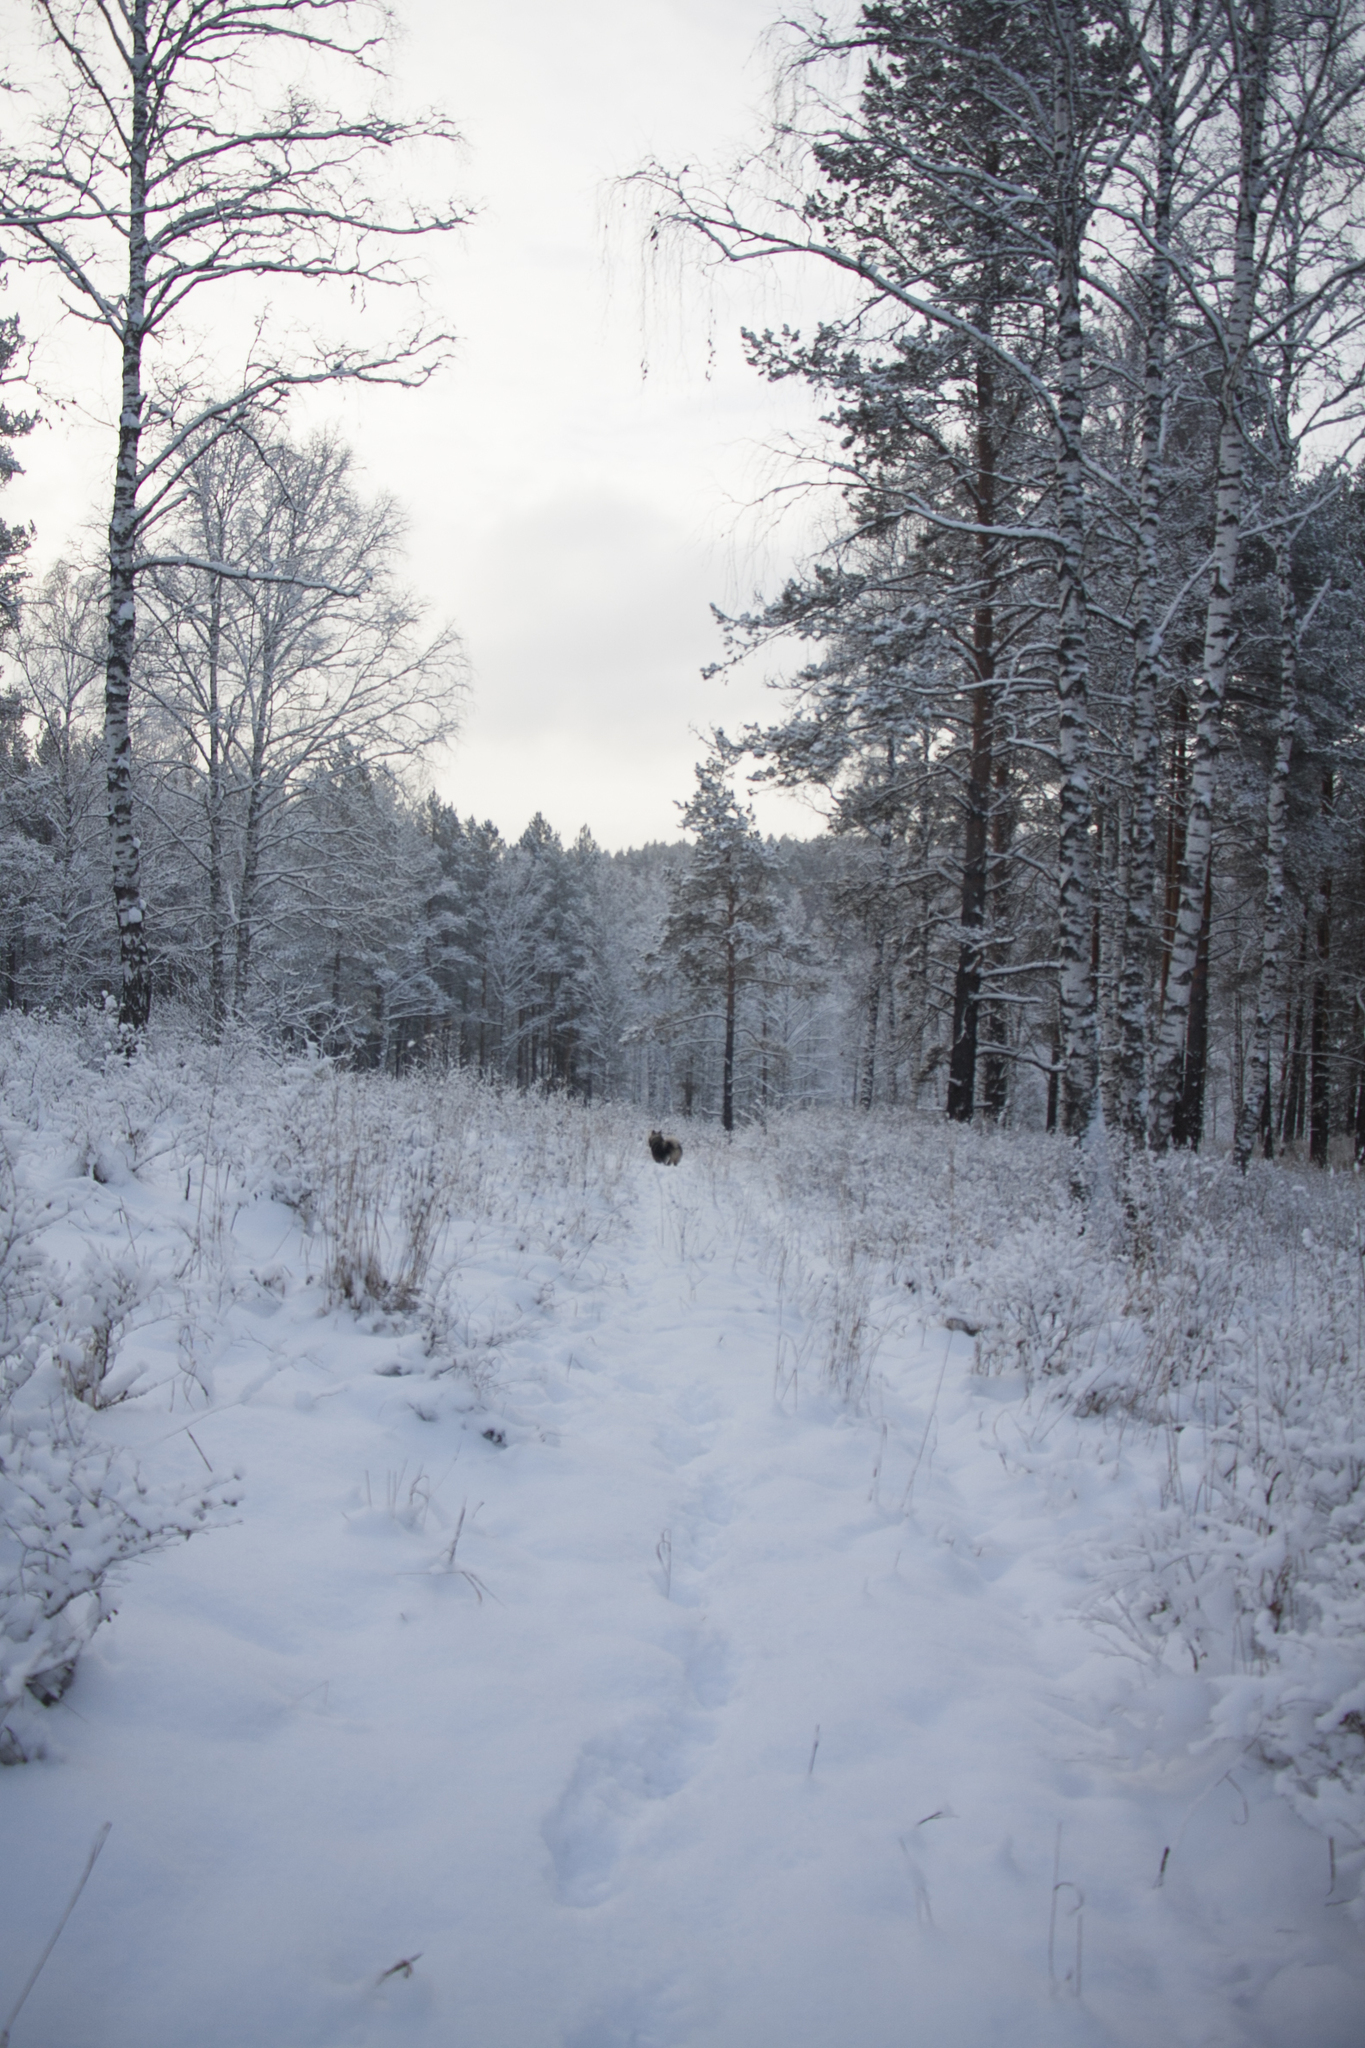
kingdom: Plantae
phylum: Tracheophyta
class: Pinopsida
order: Pinales
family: Pinaceae
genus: Pinus
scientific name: Pinus sylvestris
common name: Scots pine
